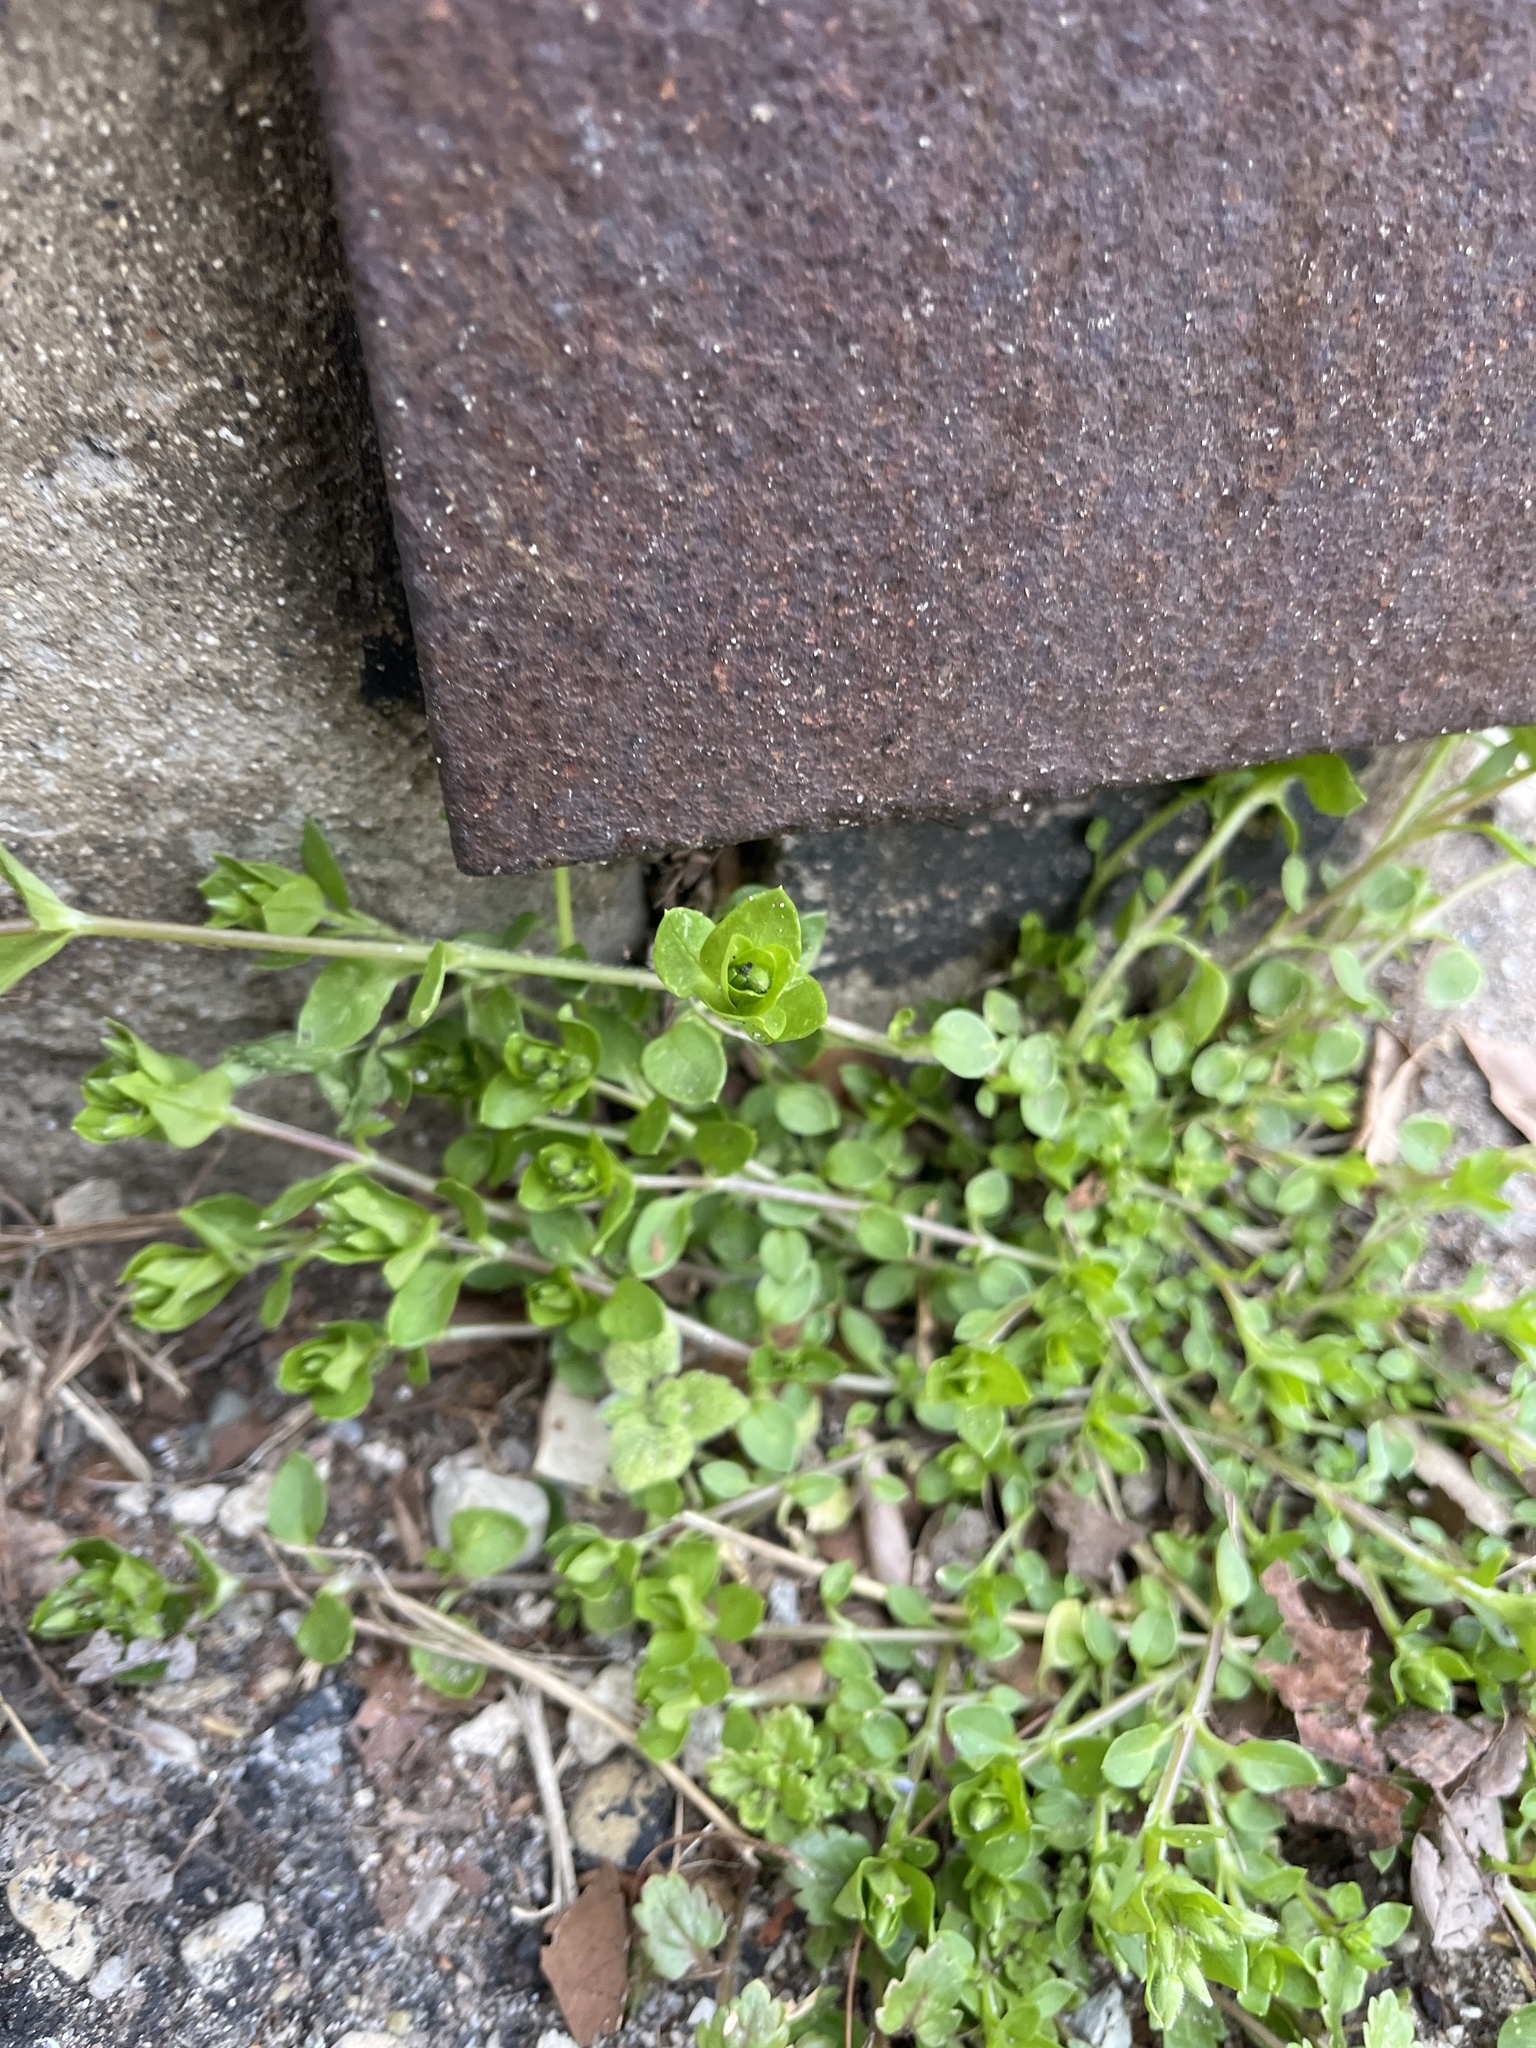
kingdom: Plantae
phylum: Tracheophyta
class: Magnoliopsida
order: Caryophyllales
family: Caryophyllaceae
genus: Stellaria
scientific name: Stellaria media
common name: Common chickweed
